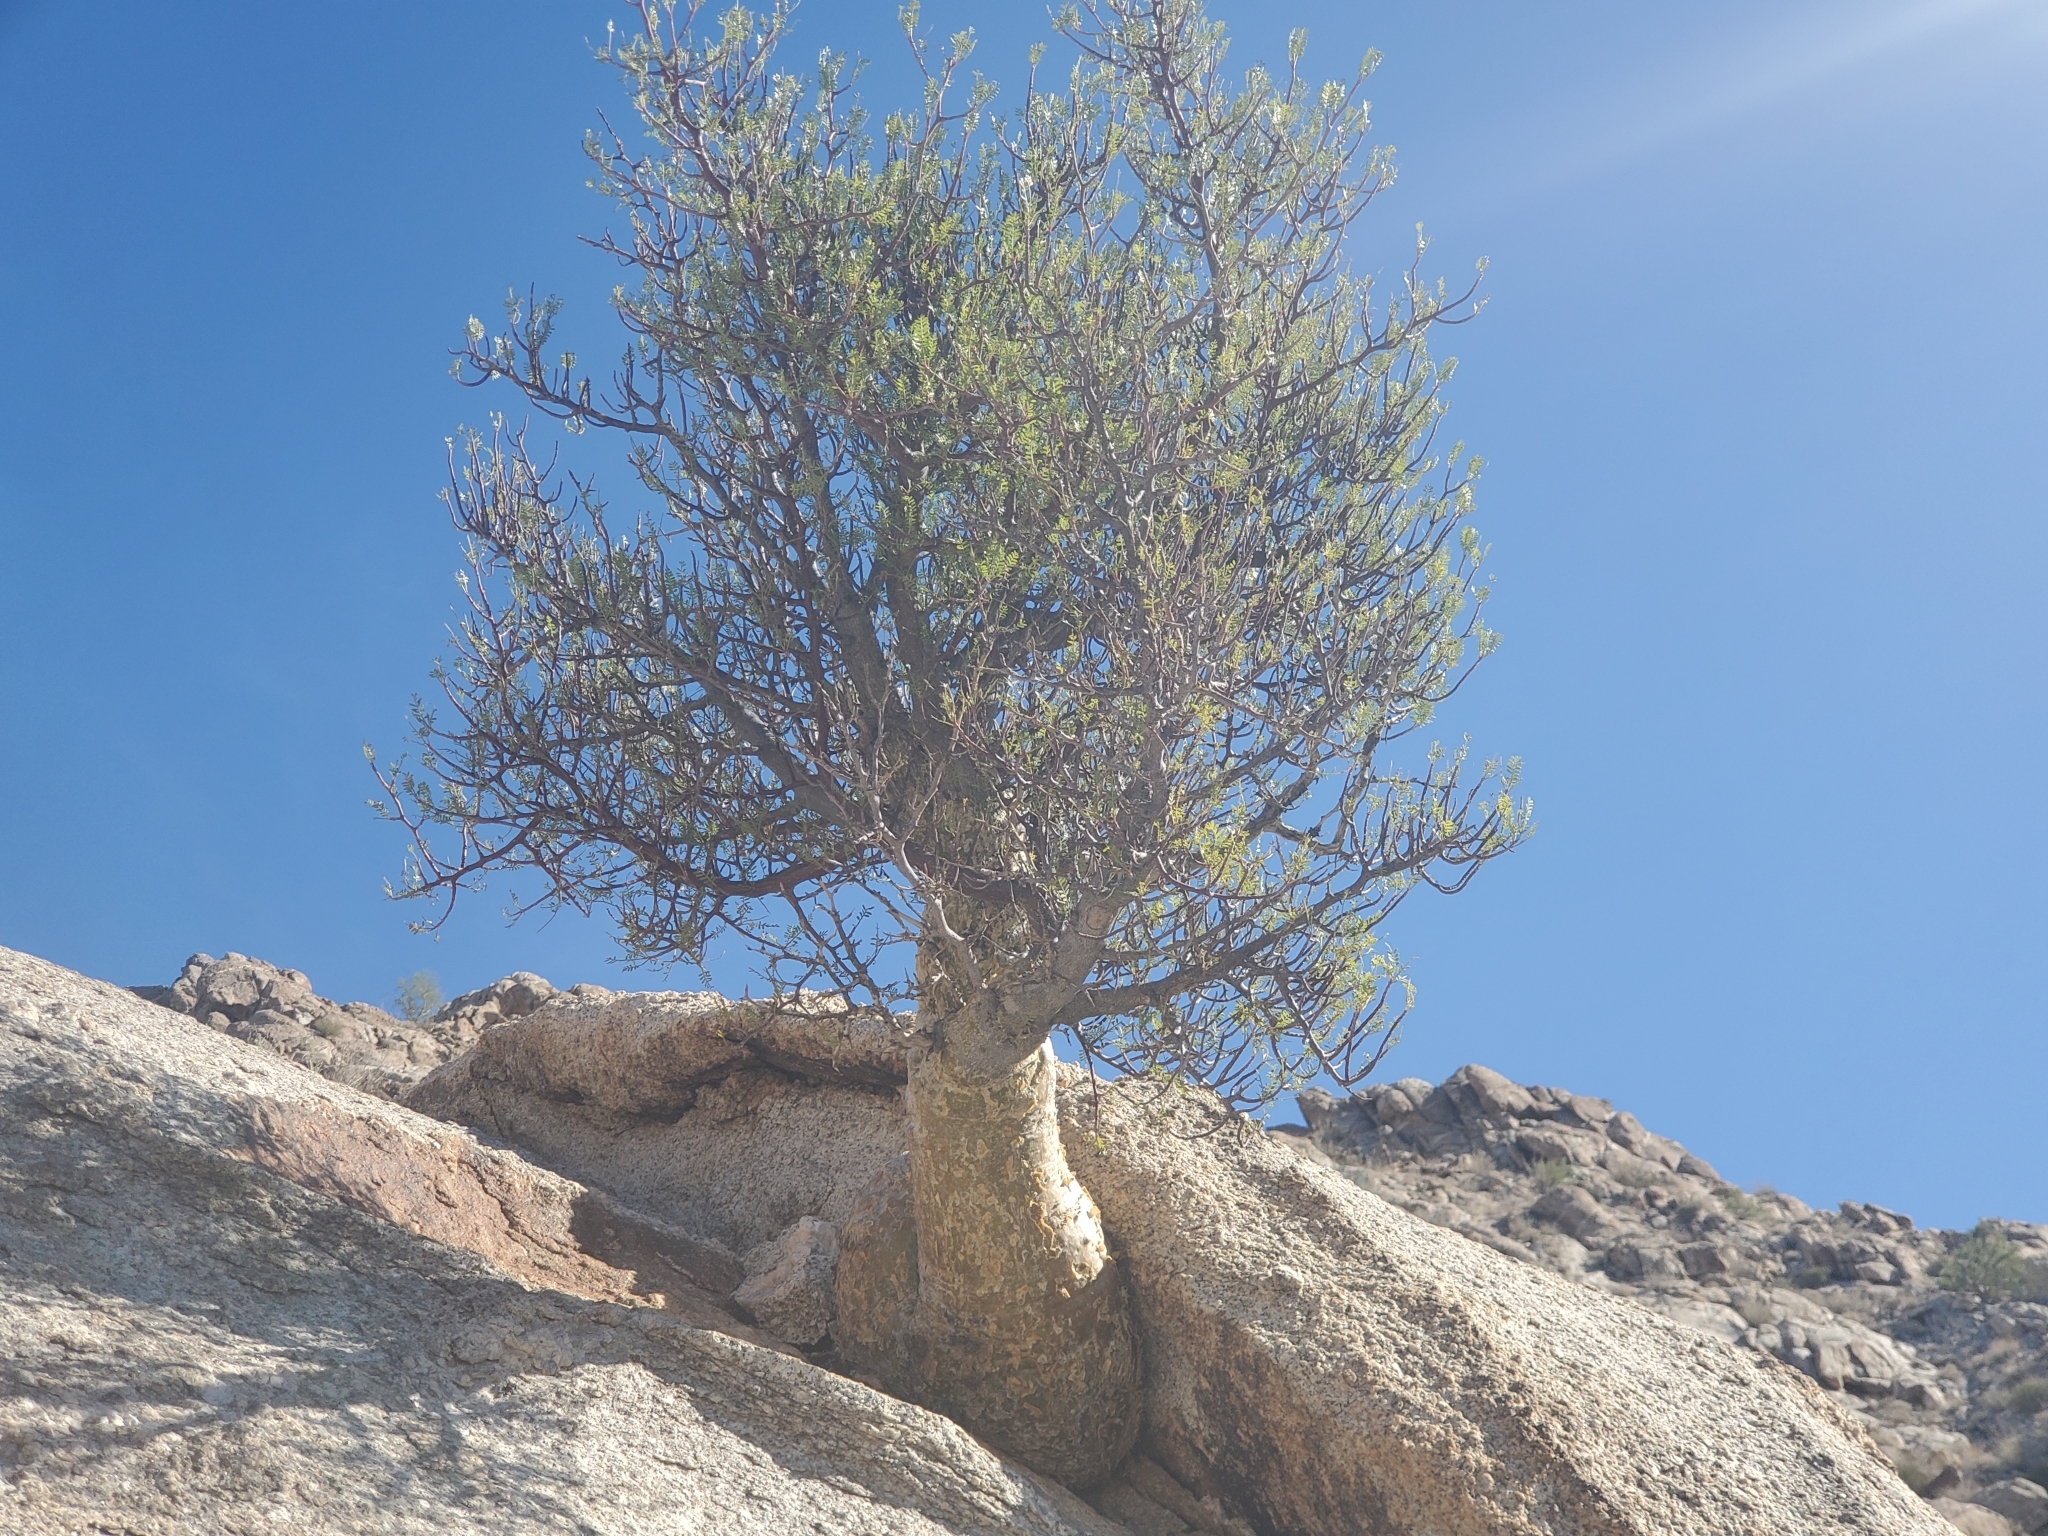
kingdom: Plantae
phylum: Tracheophyta
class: Magnoliopsida
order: Sapindales
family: Burseraceae
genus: Bursera
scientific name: Bursera microphylla
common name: Elephant tree
